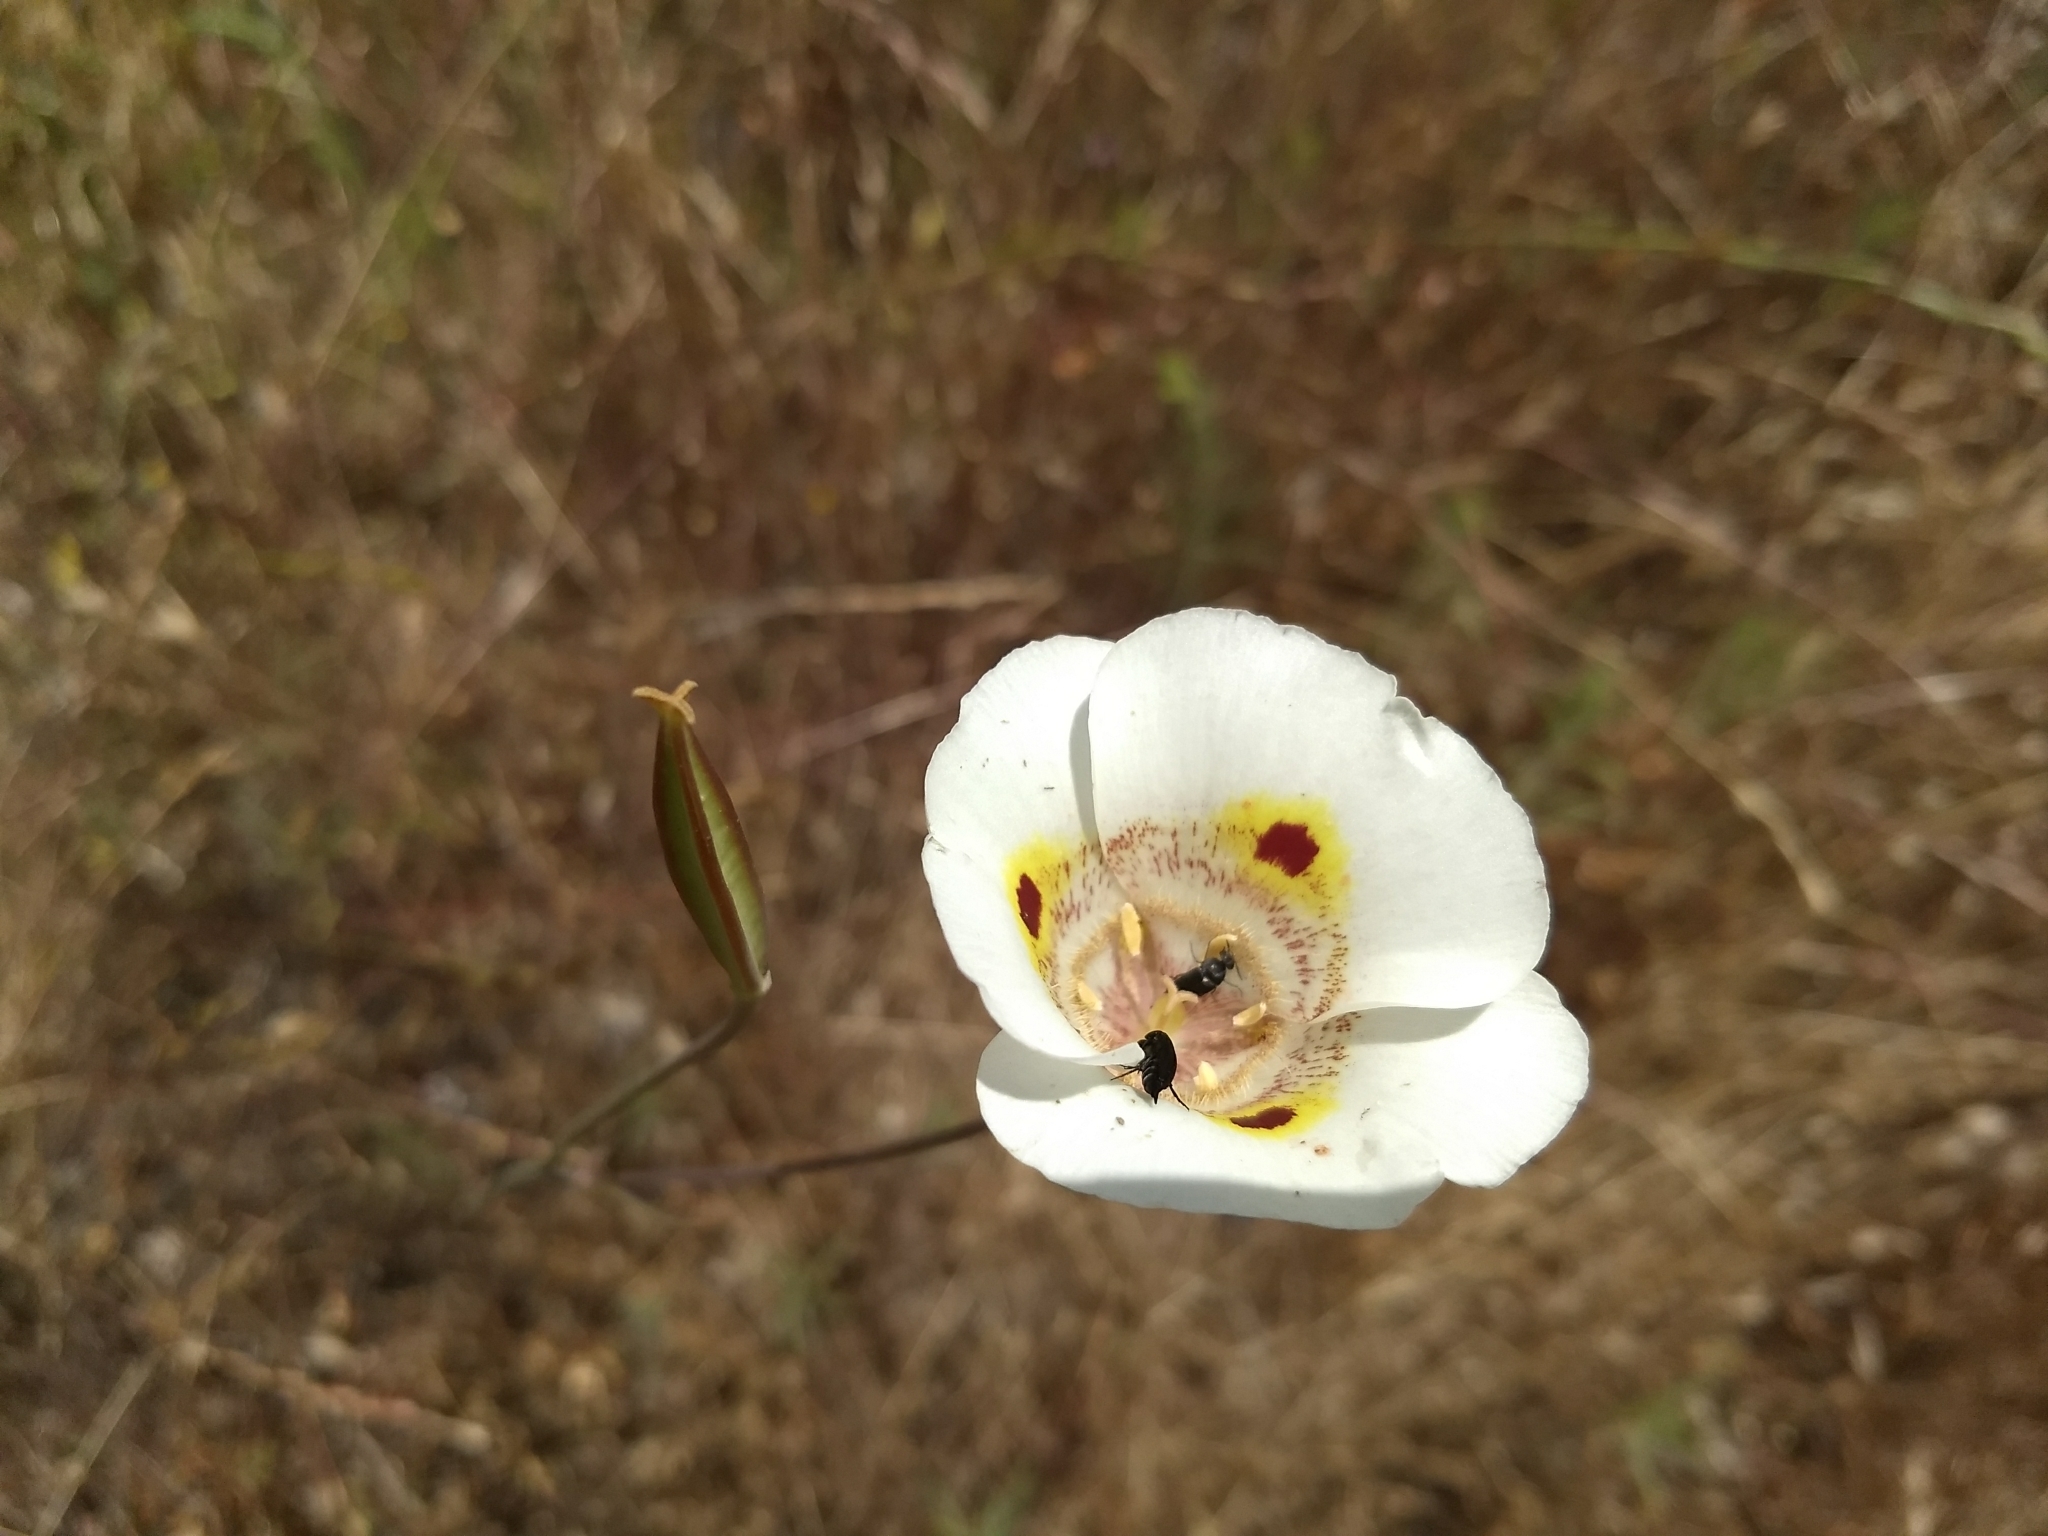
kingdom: Plantae
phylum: Tracheophyta
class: Liliopsida
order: Liliales
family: Liliaceae
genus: Calochortus
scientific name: Calochortus superbus
